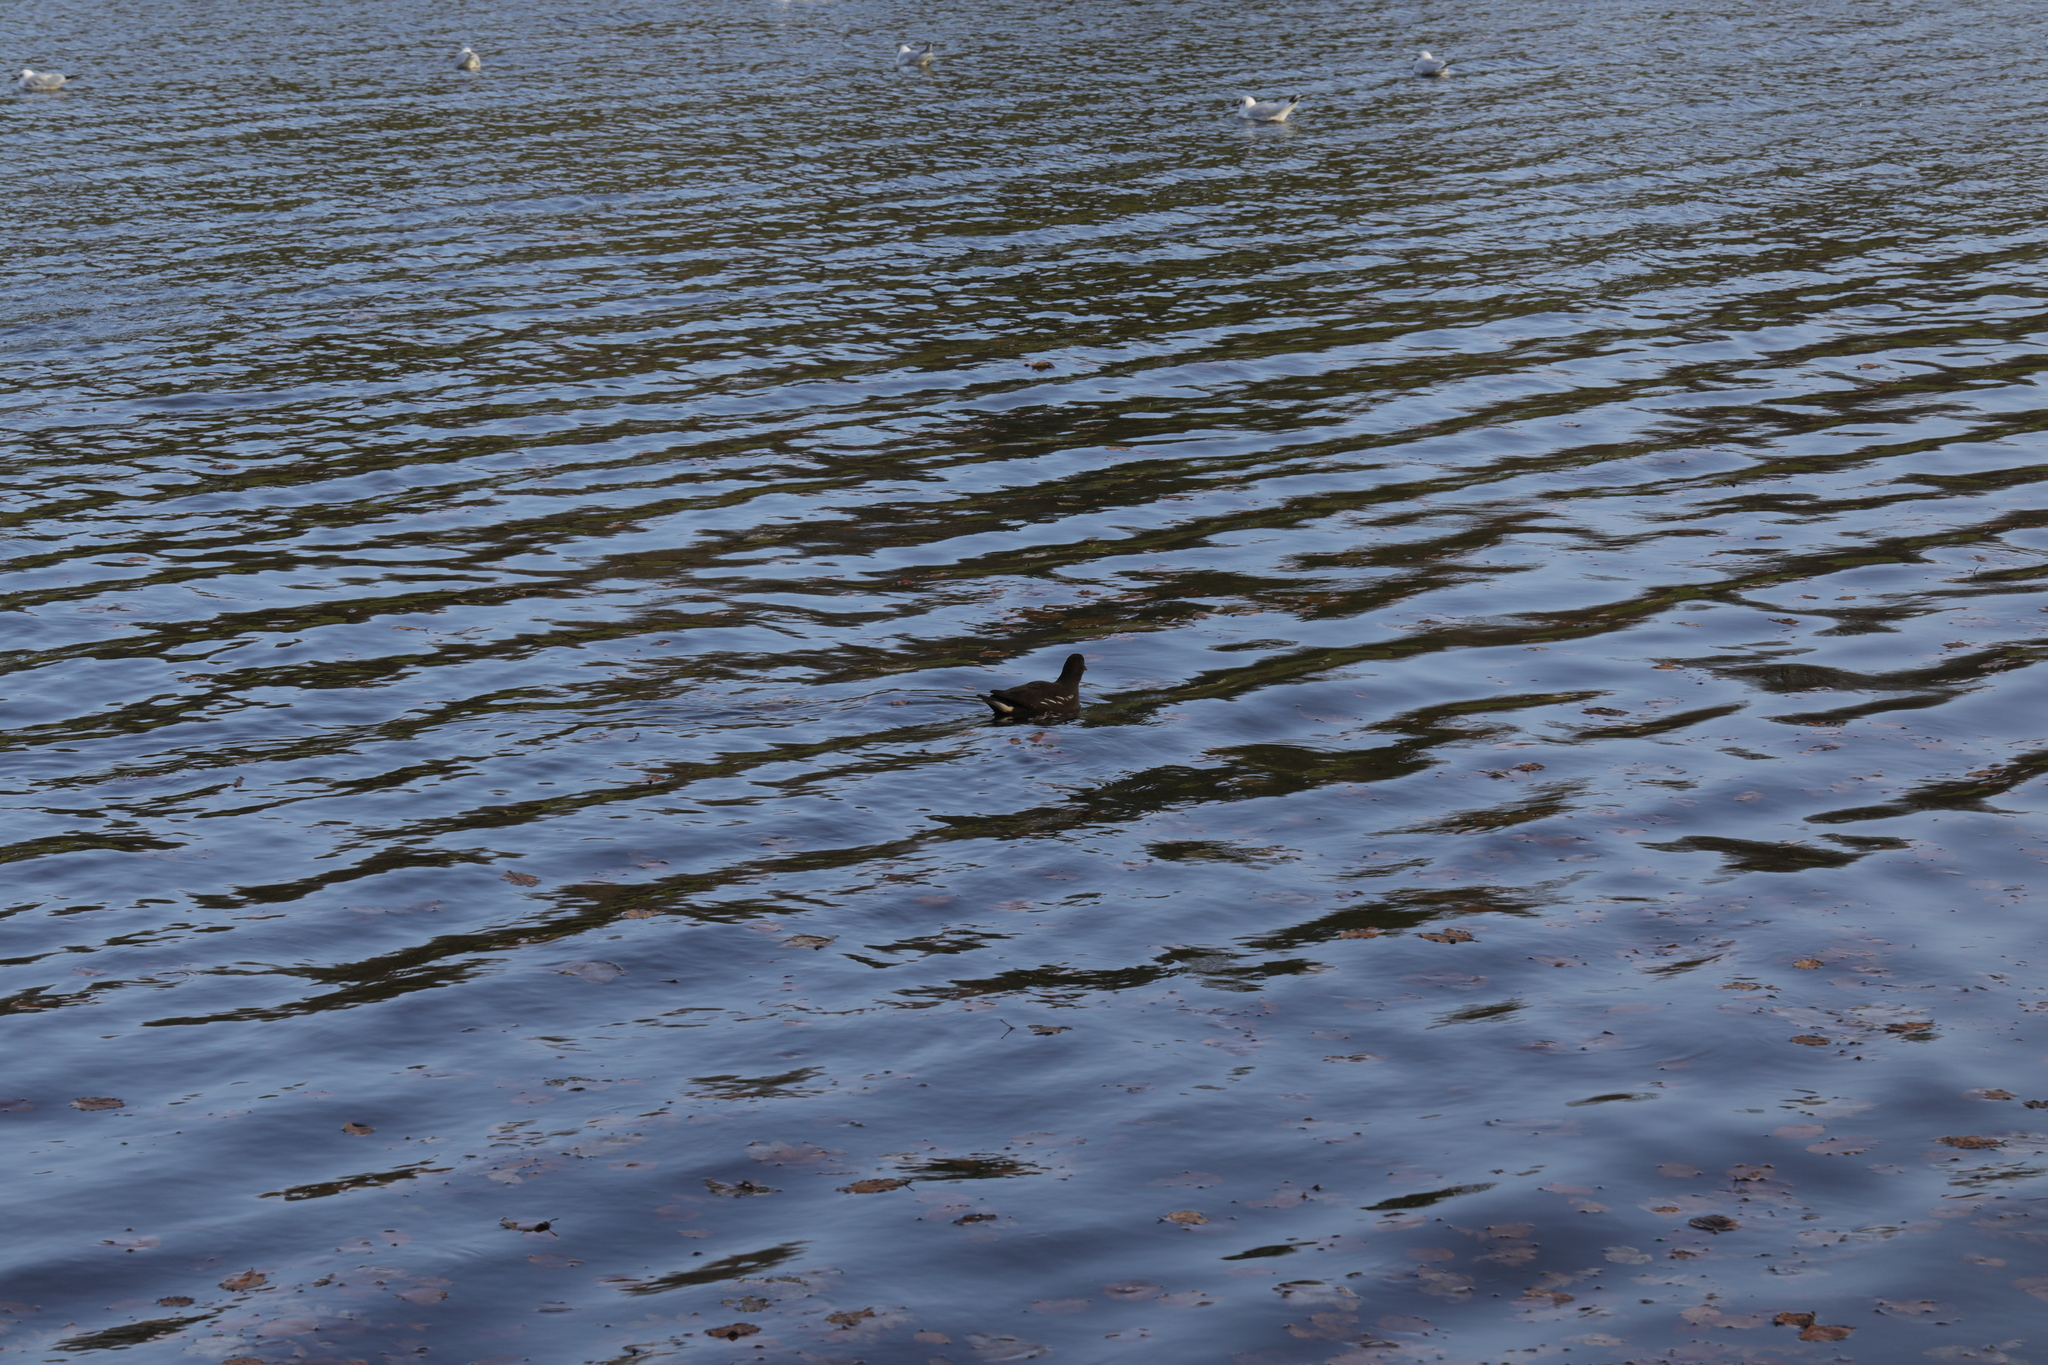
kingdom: Animalia
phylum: Chordata
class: Aves
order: Gruiformes
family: Rallidae
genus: Gallinula
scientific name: Gallinula chloropus
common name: Common moorhen
